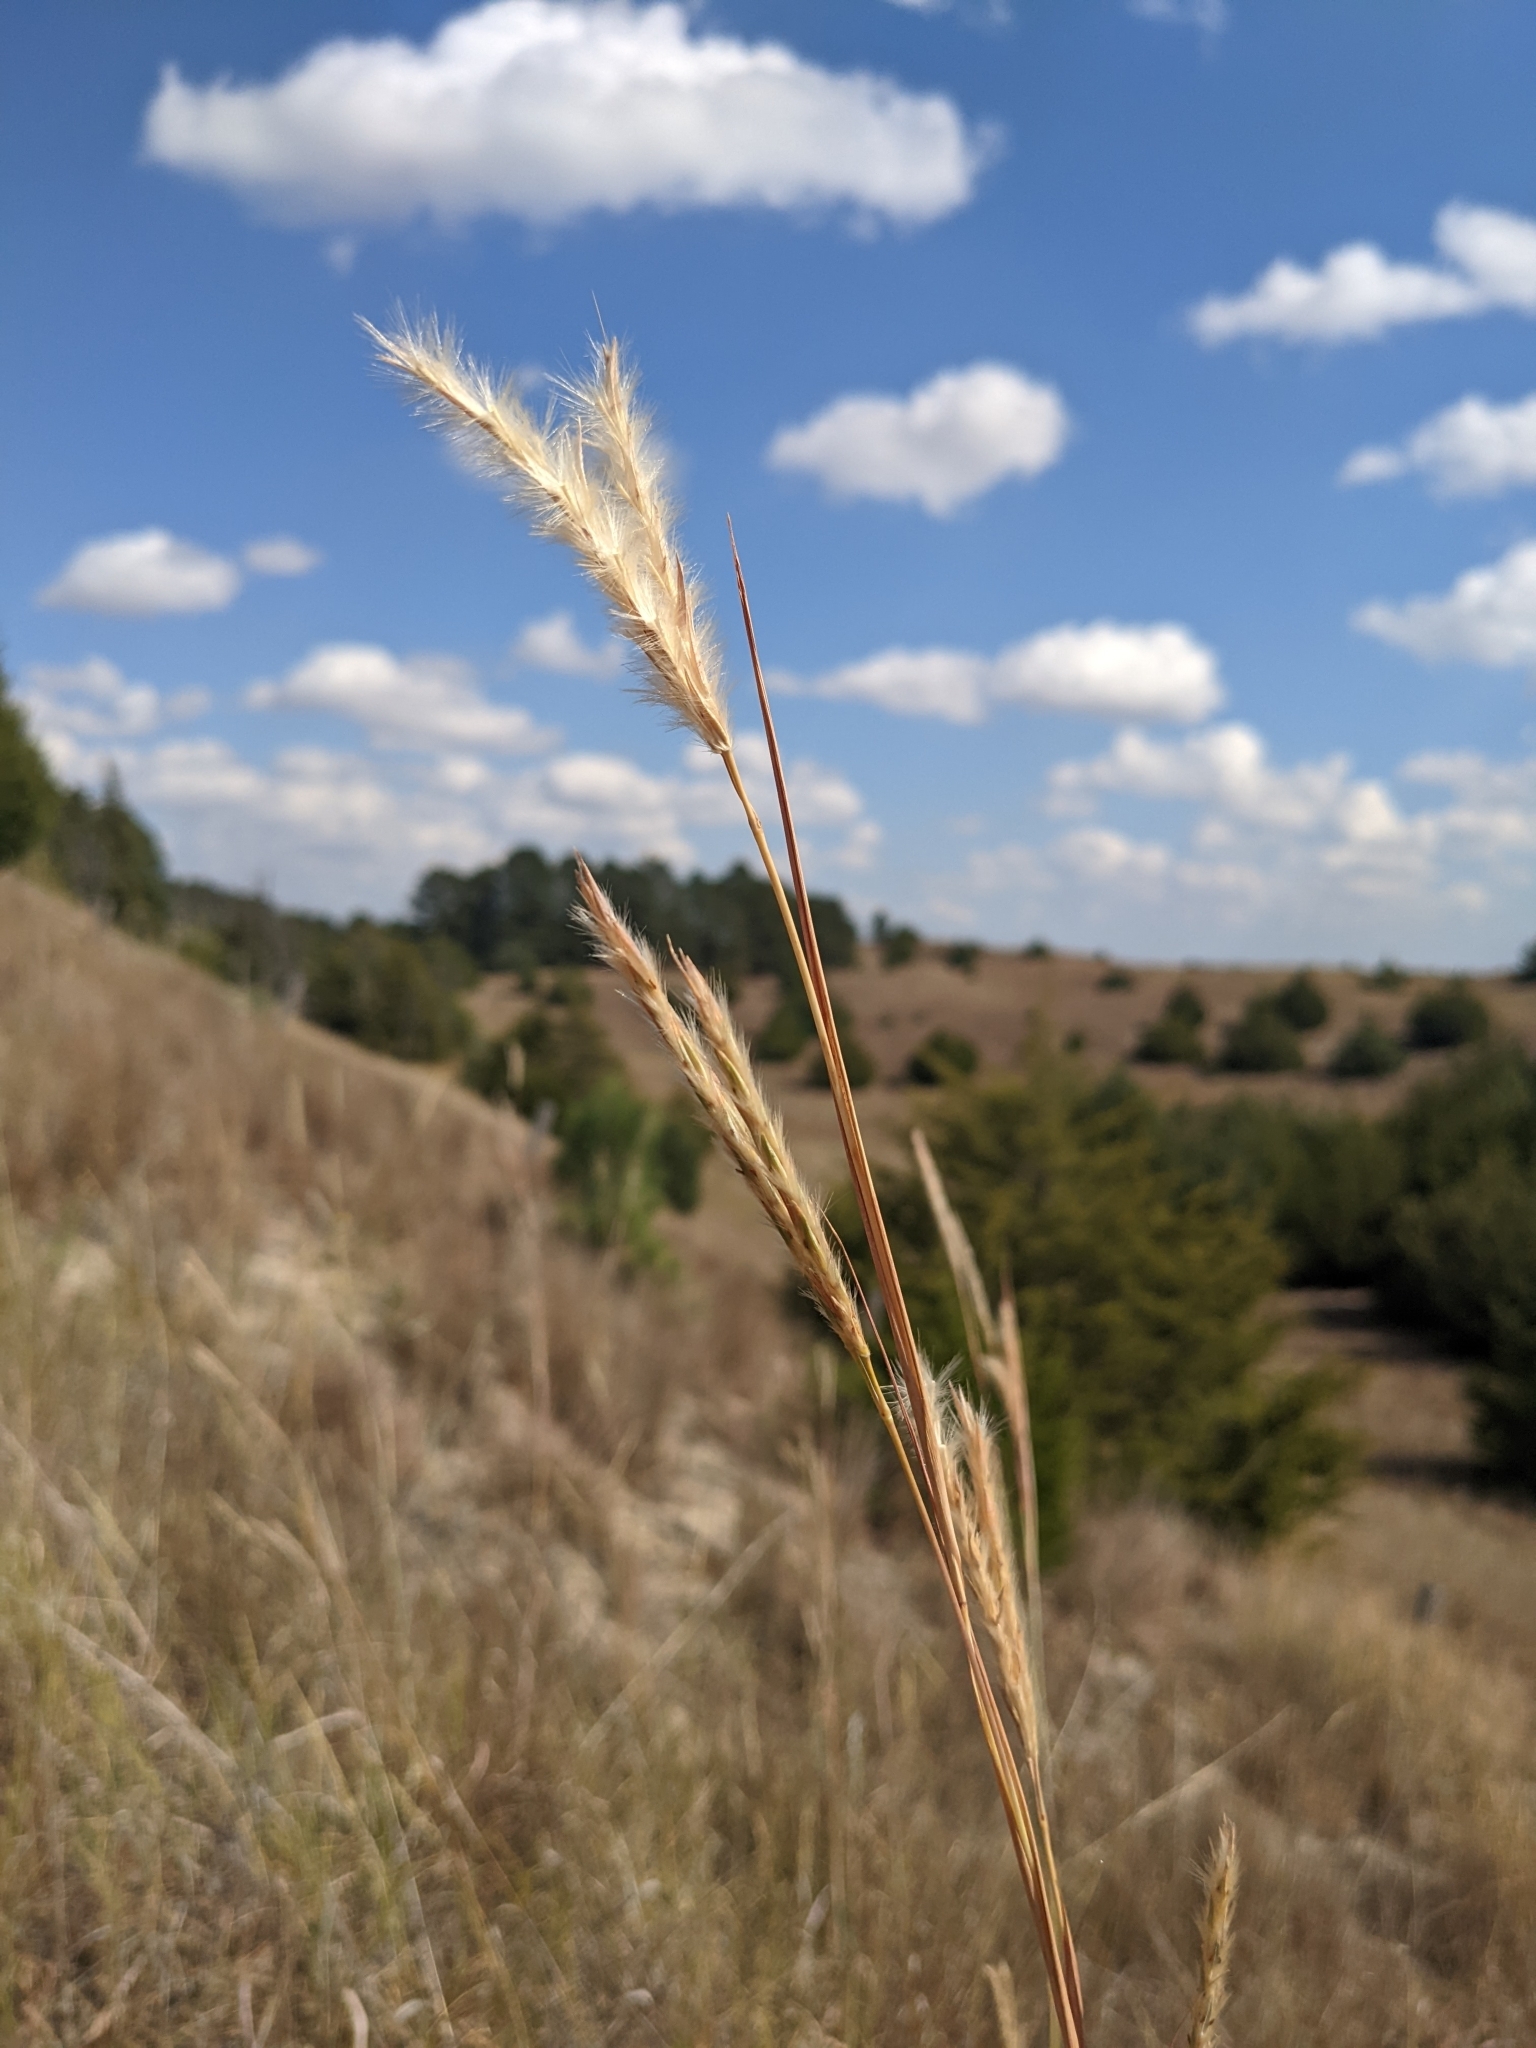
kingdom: Plantae
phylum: Tracheophyta
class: Liliopsida
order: Poales
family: Poaceae
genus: Andropogon
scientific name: Andropogon hallii
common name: Sand bluestem
